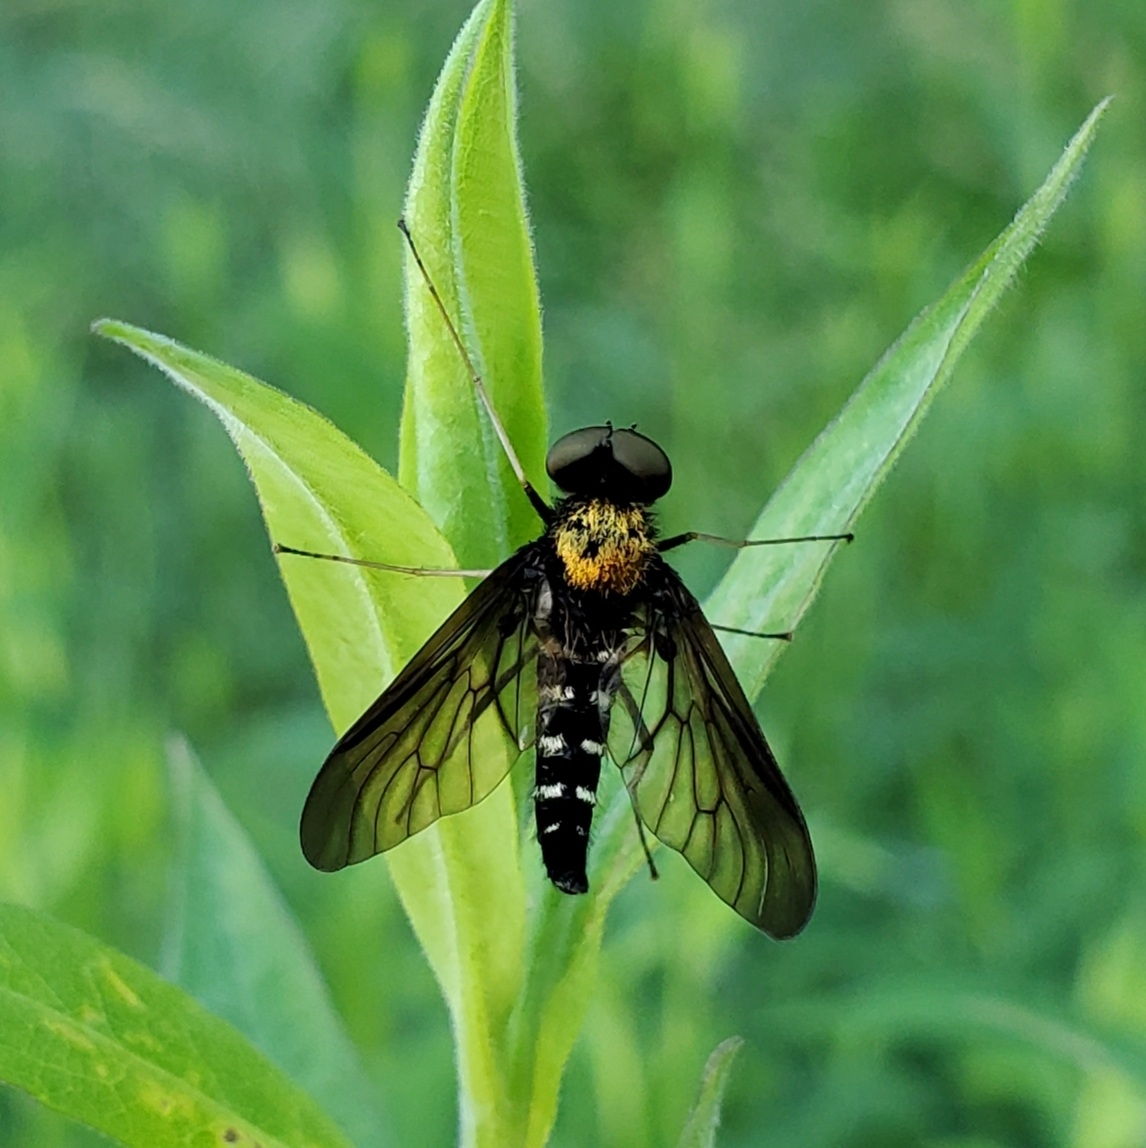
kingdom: Animalia
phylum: Arthropoda
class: Insecta
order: Diptera
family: Rhagionidae
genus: Chrysopilus
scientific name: Chrysopilus thoracicus
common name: Golden-backed snipe fly
